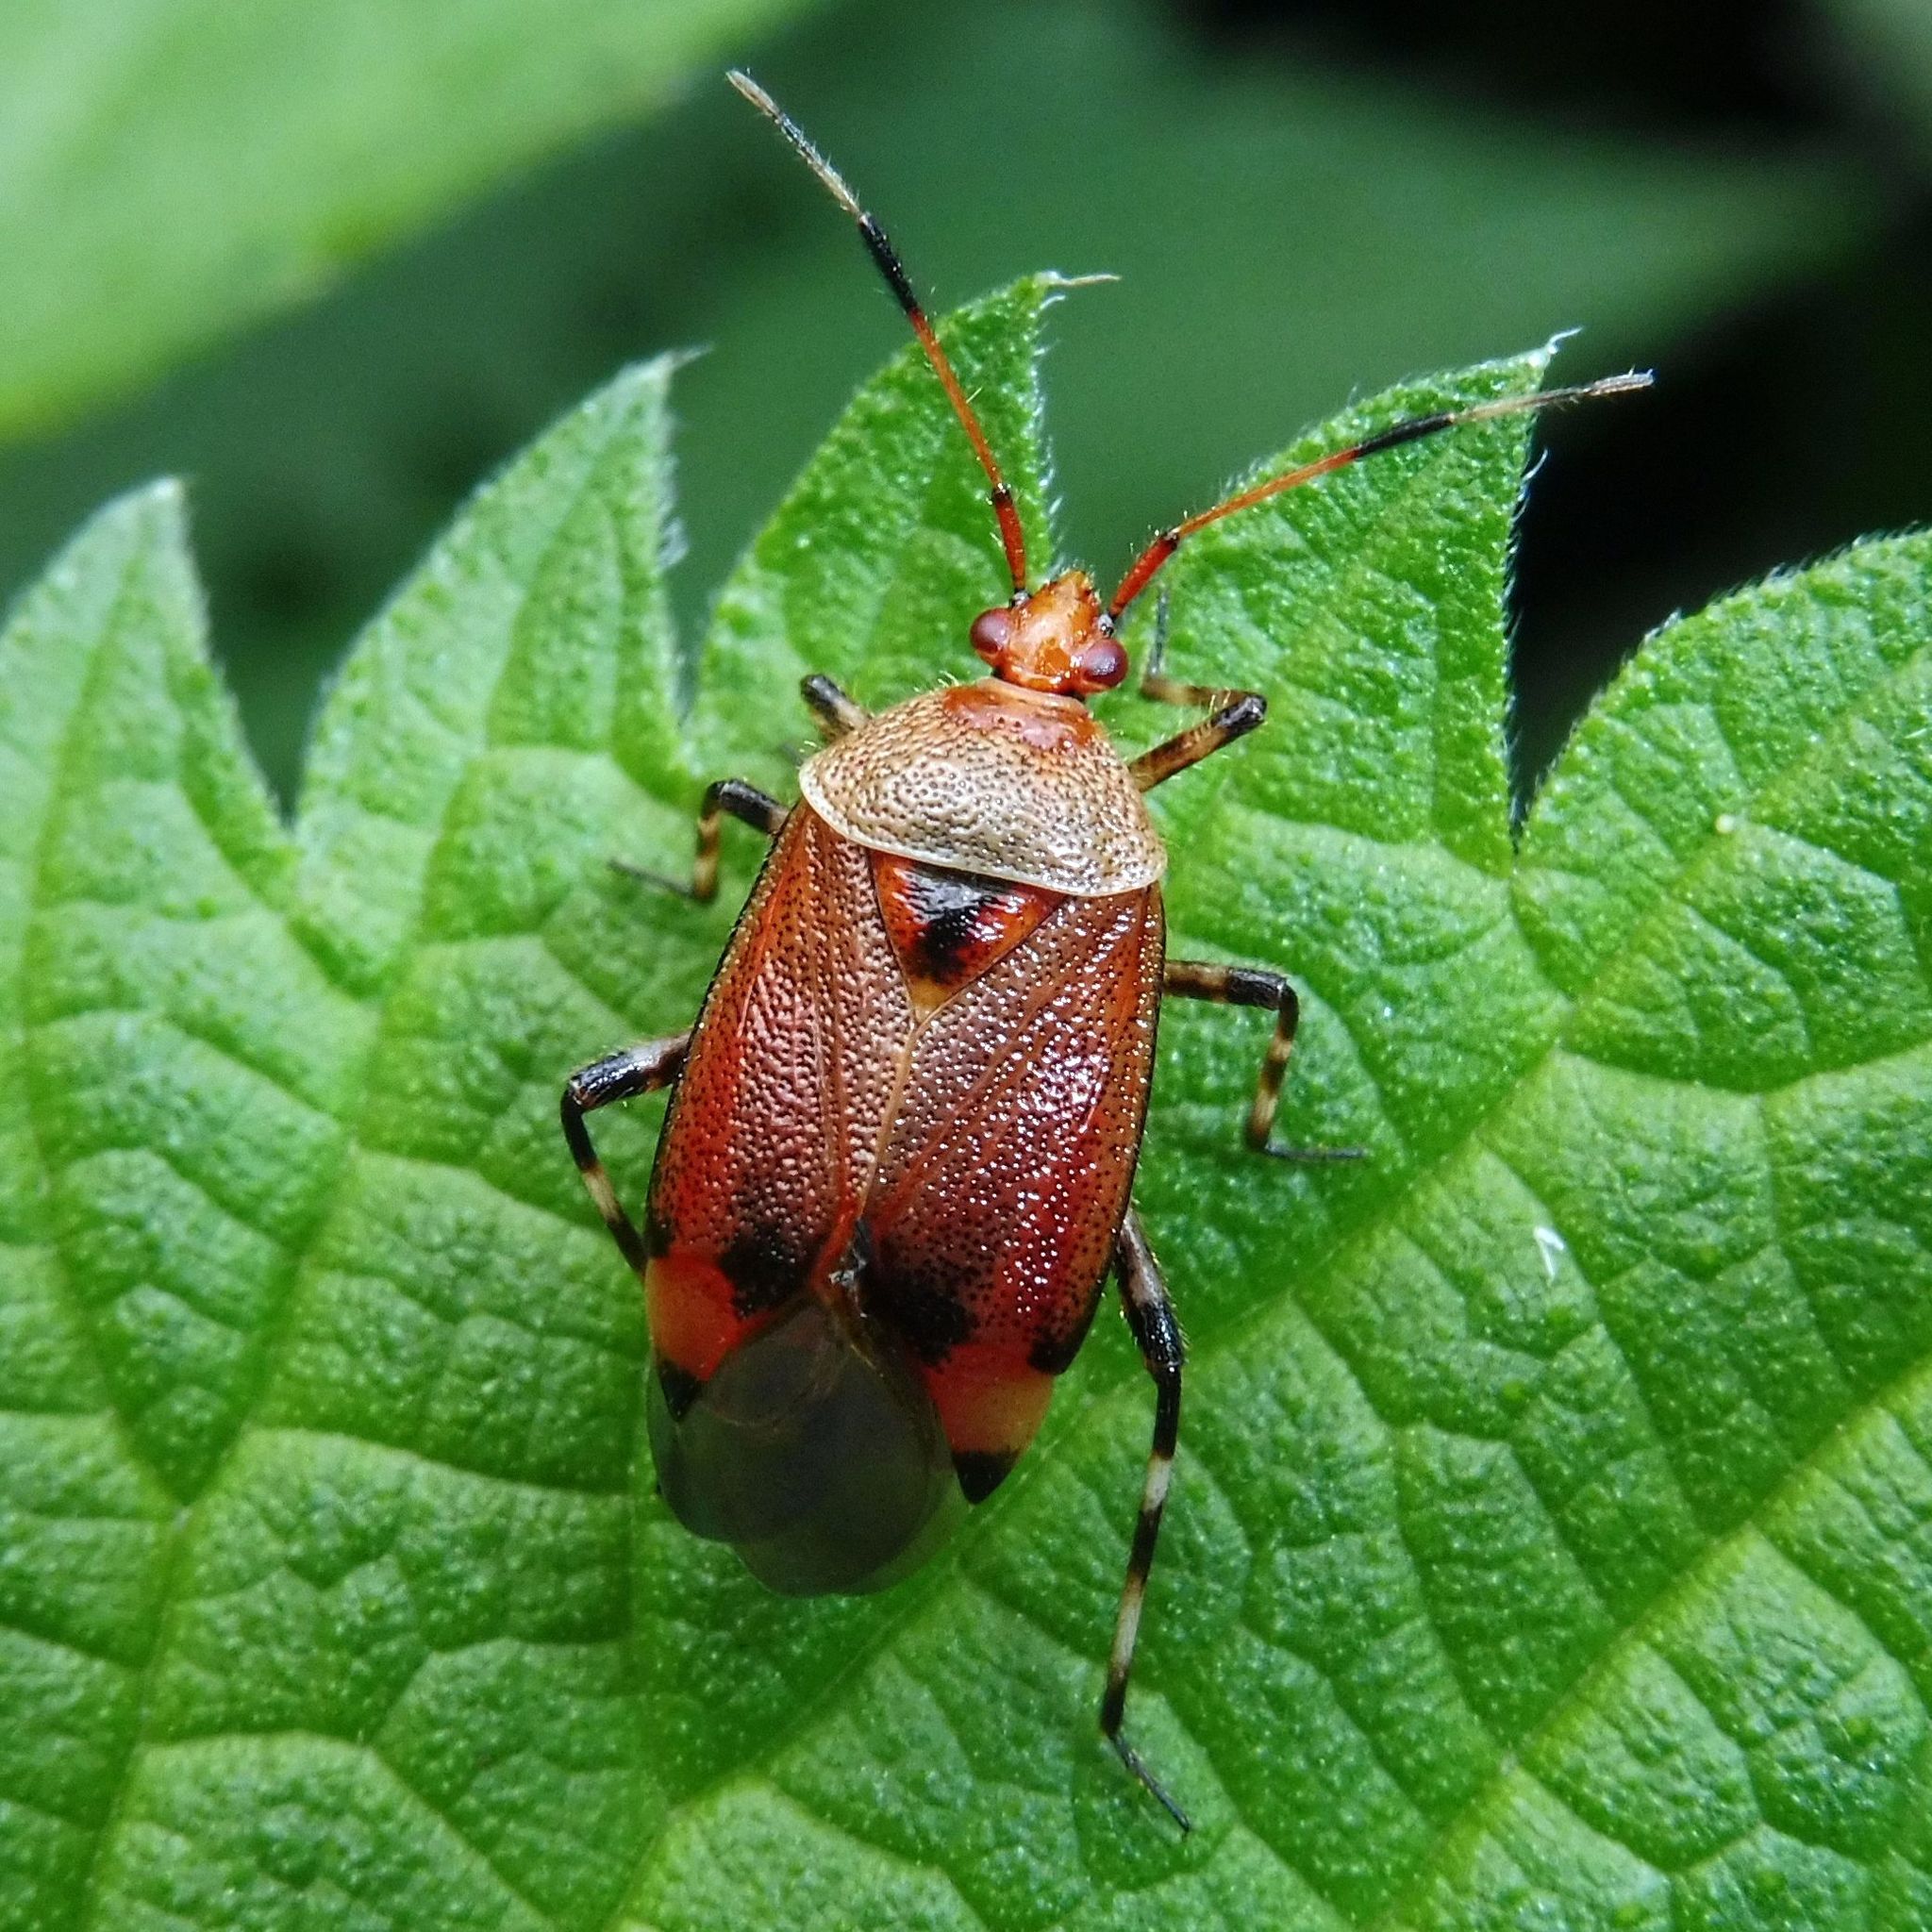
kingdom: Animalia
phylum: Arthropoda
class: Insecta
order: Hemiptera
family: Miridae
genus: Deraeocoris
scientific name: Deraeocoris olivaceus
